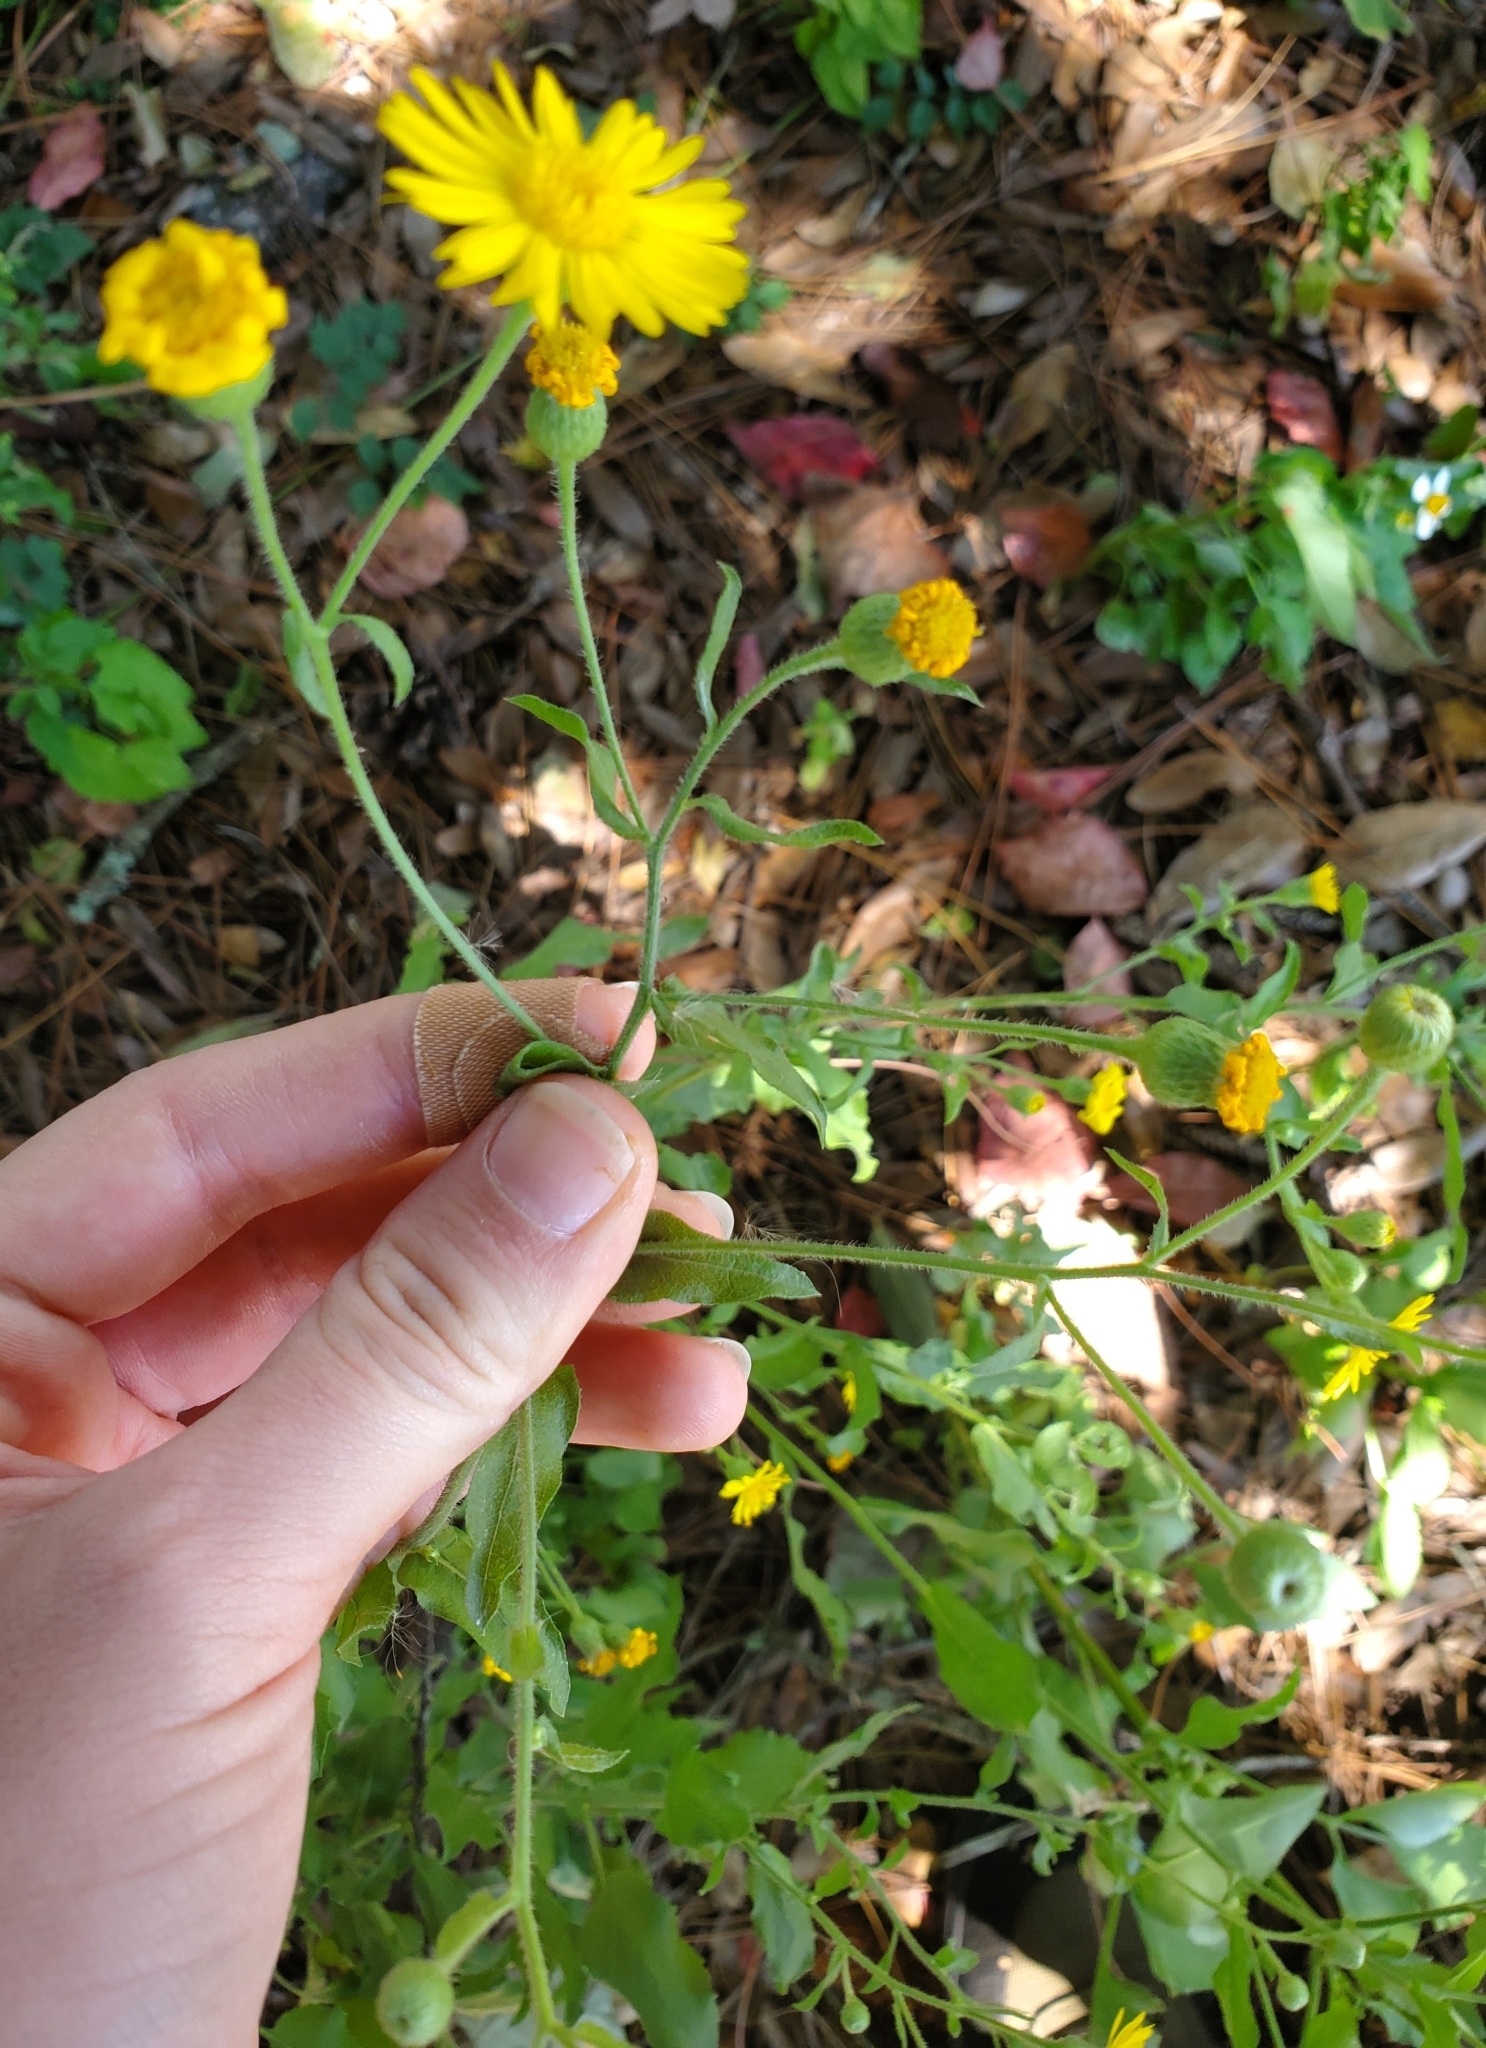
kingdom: Plantae
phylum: Tracheophyta
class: Magnoliopsida
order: Asterales
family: Asteraceae
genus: Heterotheca
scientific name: Heterotheca subaxillaris
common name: Camphorweed
